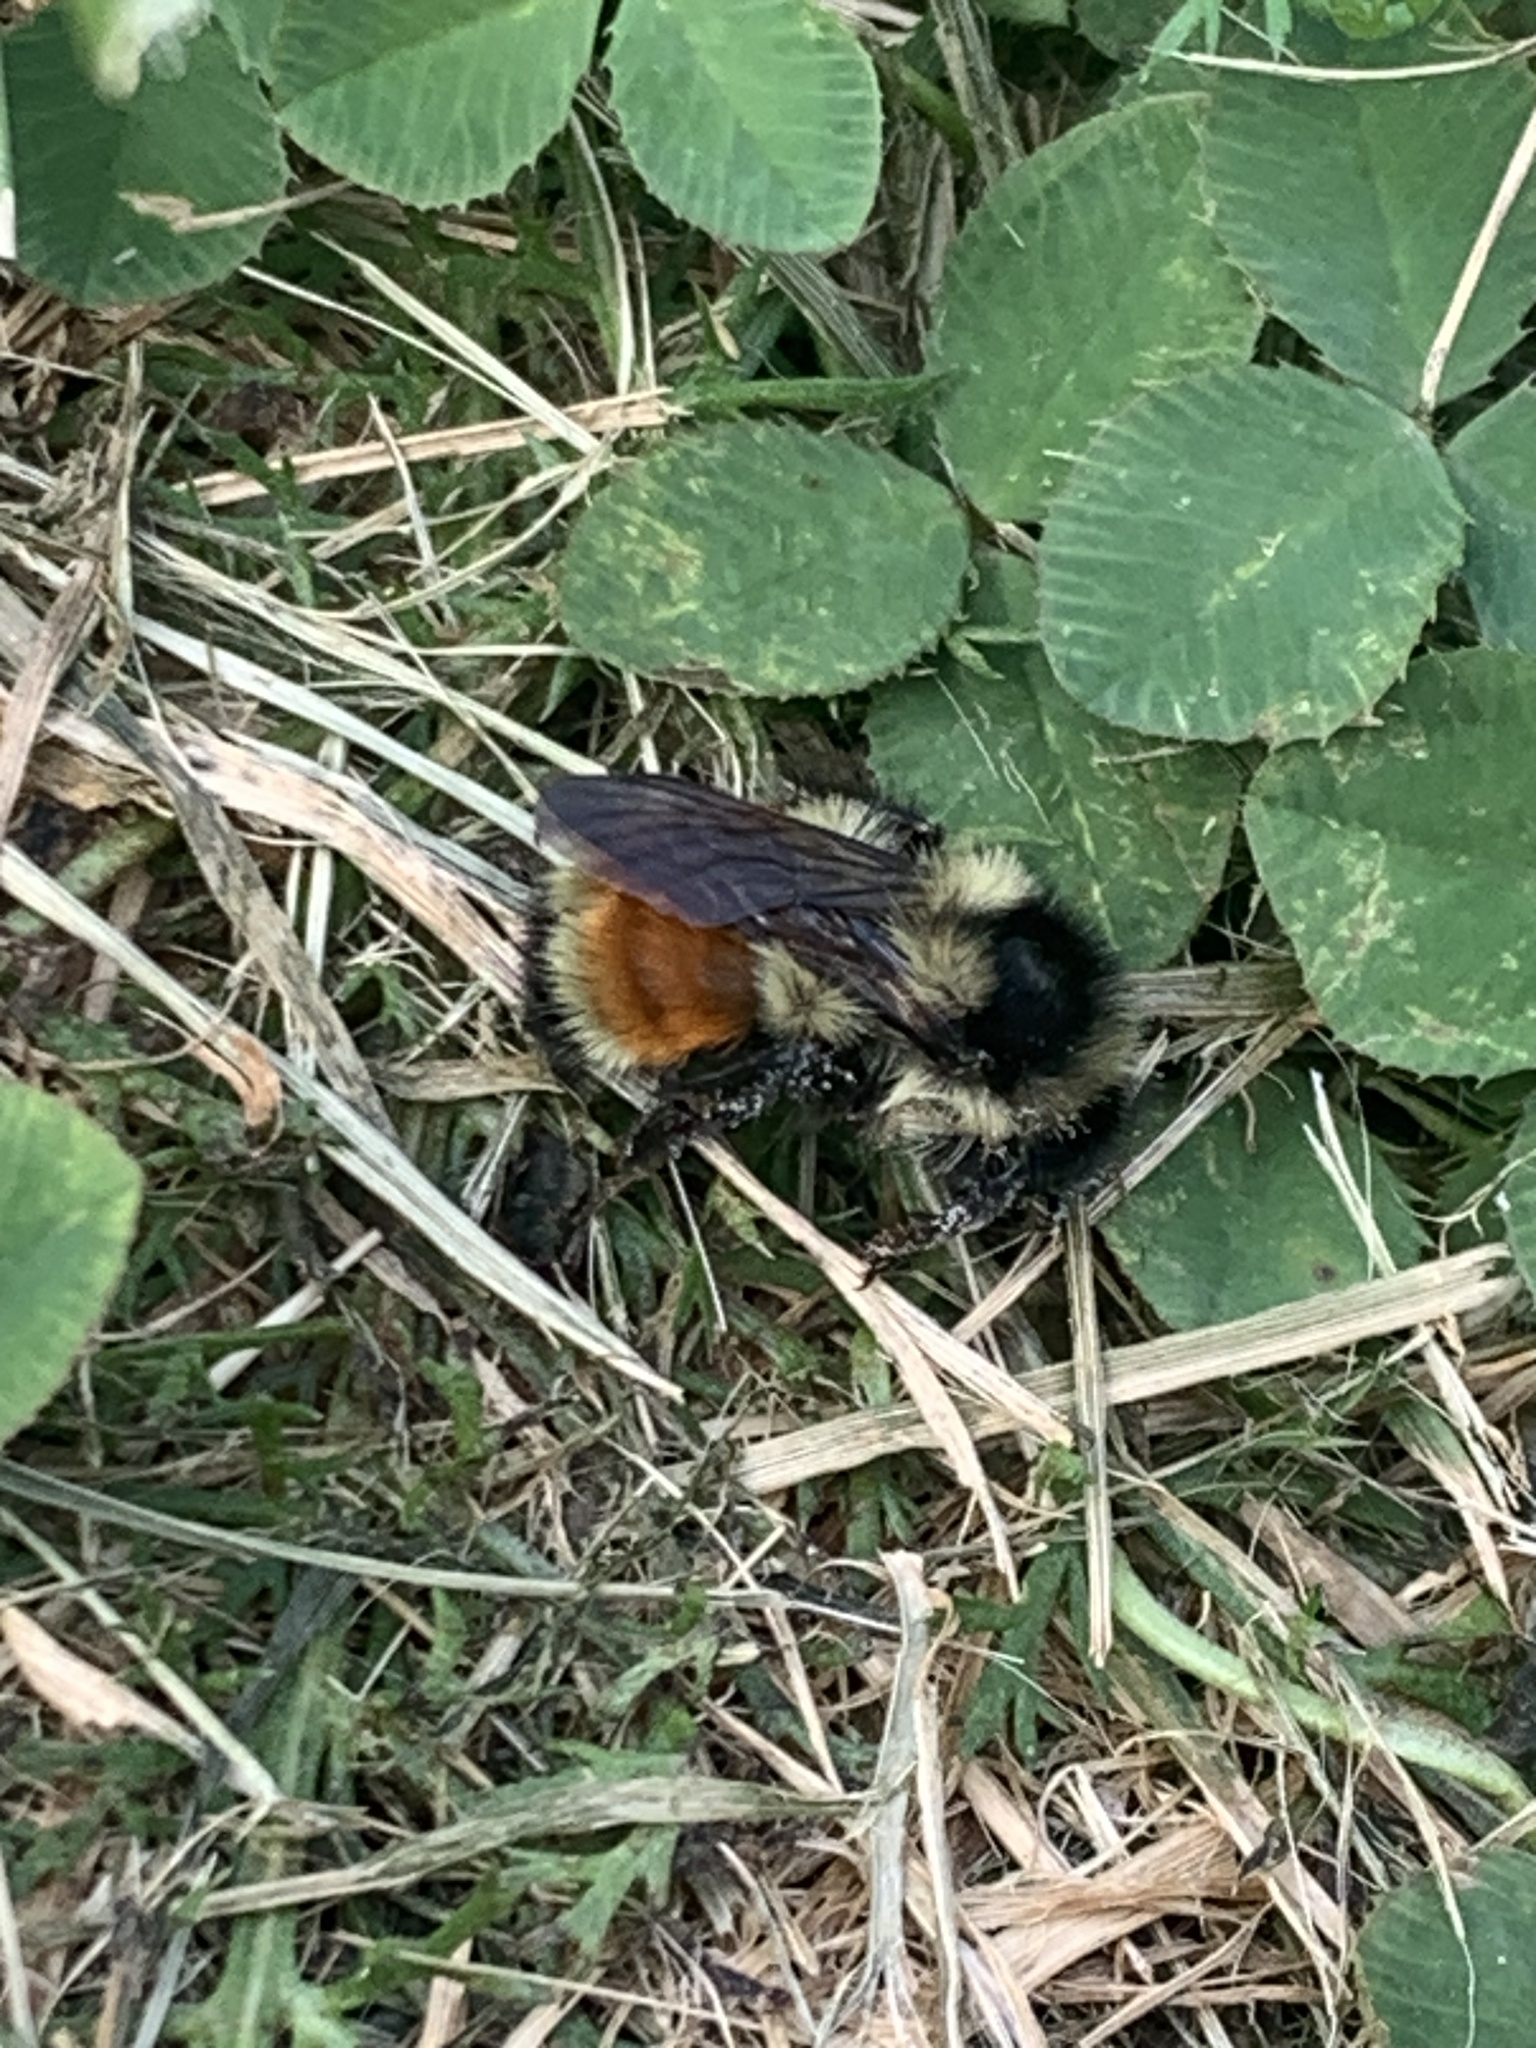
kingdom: Animalia
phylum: Arthropoda
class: Insecta
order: Hymenoptera
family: Apidae
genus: Bombus
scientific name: Bombus ternarius
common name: Tri-colored bumble bee
